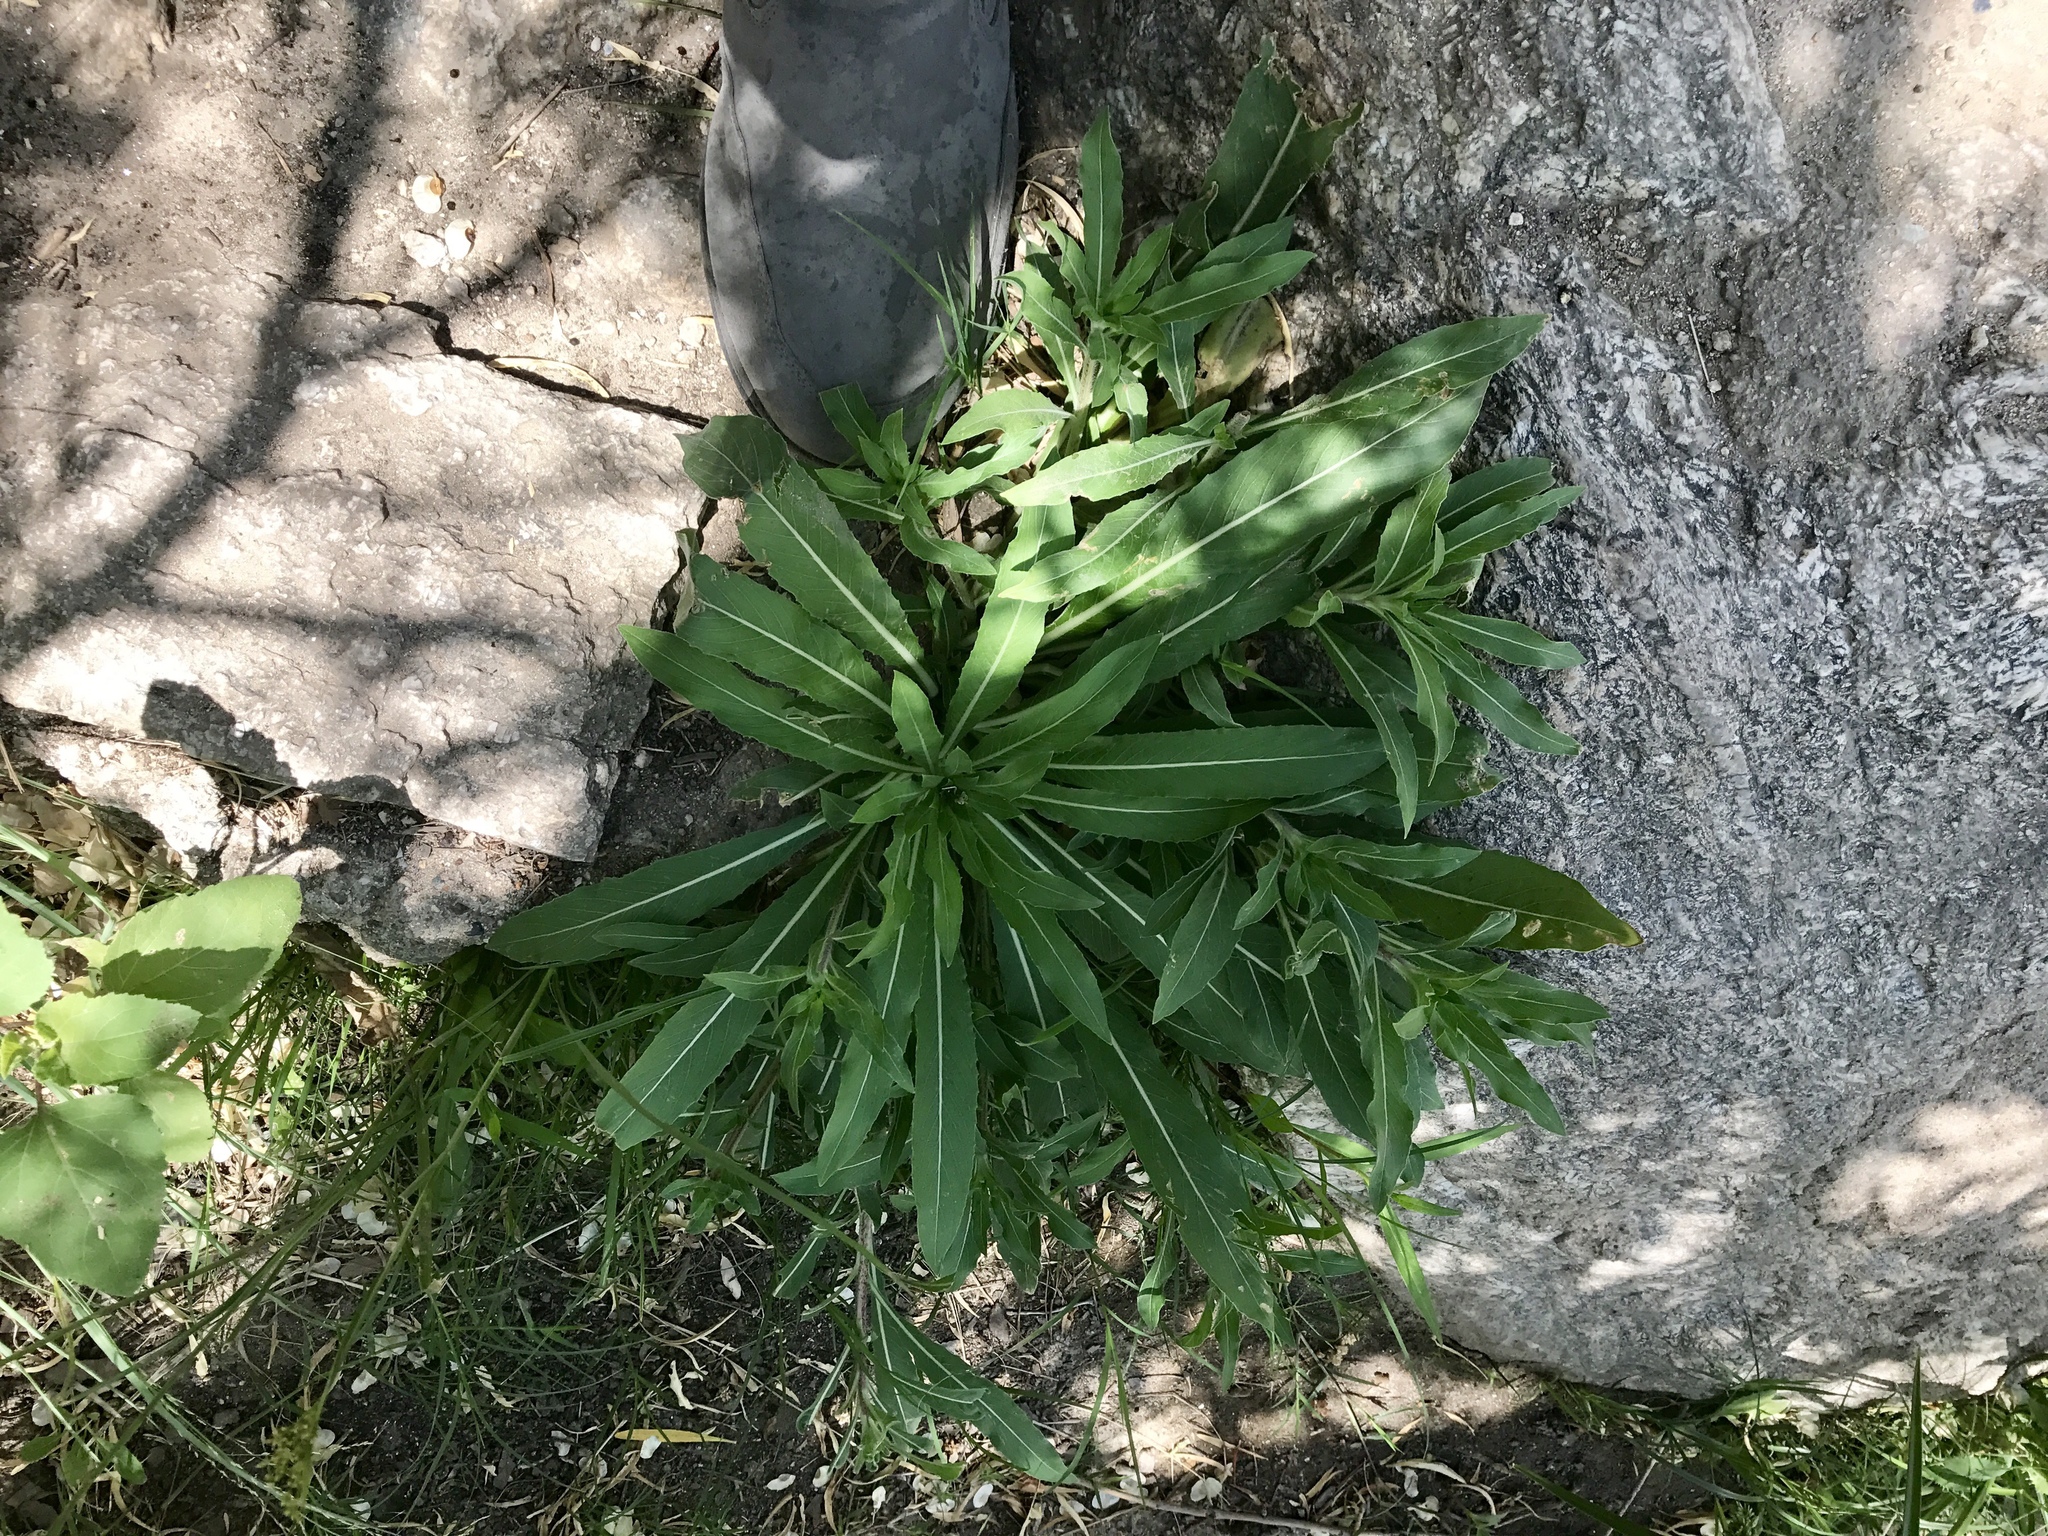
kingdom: Plantae
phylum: Tracheophyta
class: Magnoliopsida
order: Myrtales
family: Onagraceae
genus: Oenothera
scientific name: Oenothera elata
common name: Hooker's evening-primrose
